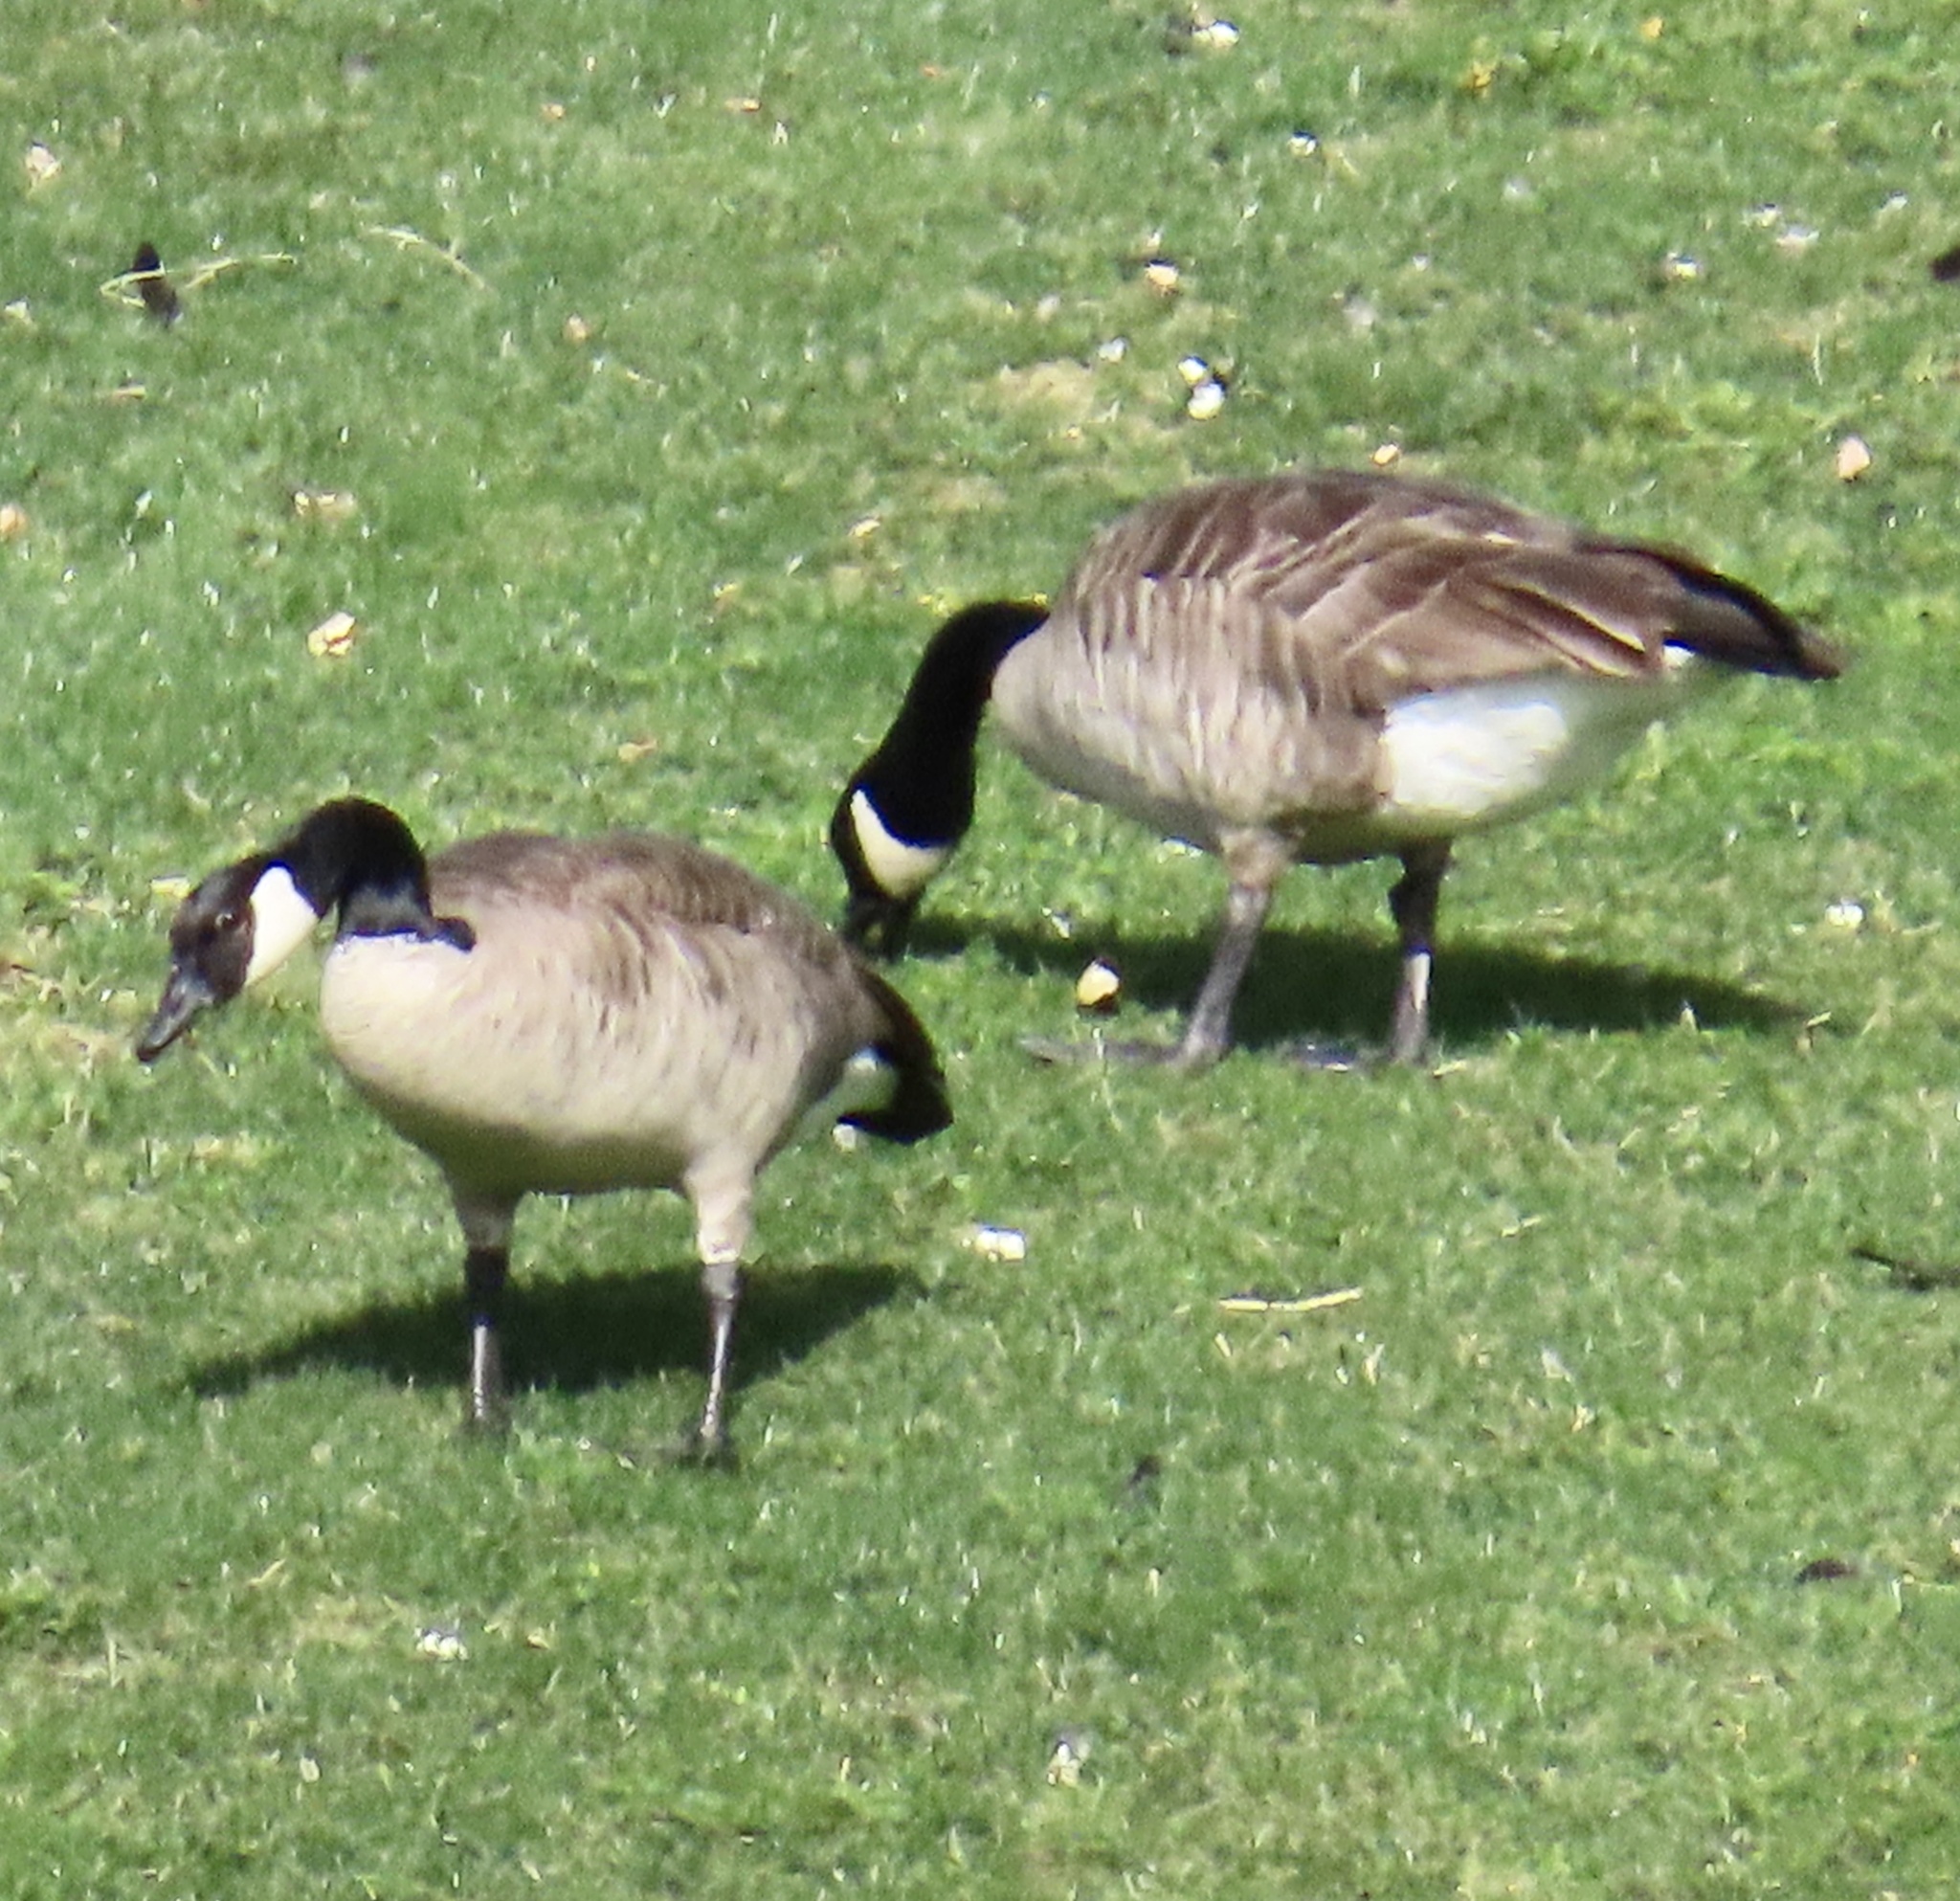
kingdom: Animalia
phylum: Chordata
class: Aves
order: Anseriformes
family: Anatidae
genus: Branta
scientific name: Branta canadensis
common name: Canada goose
